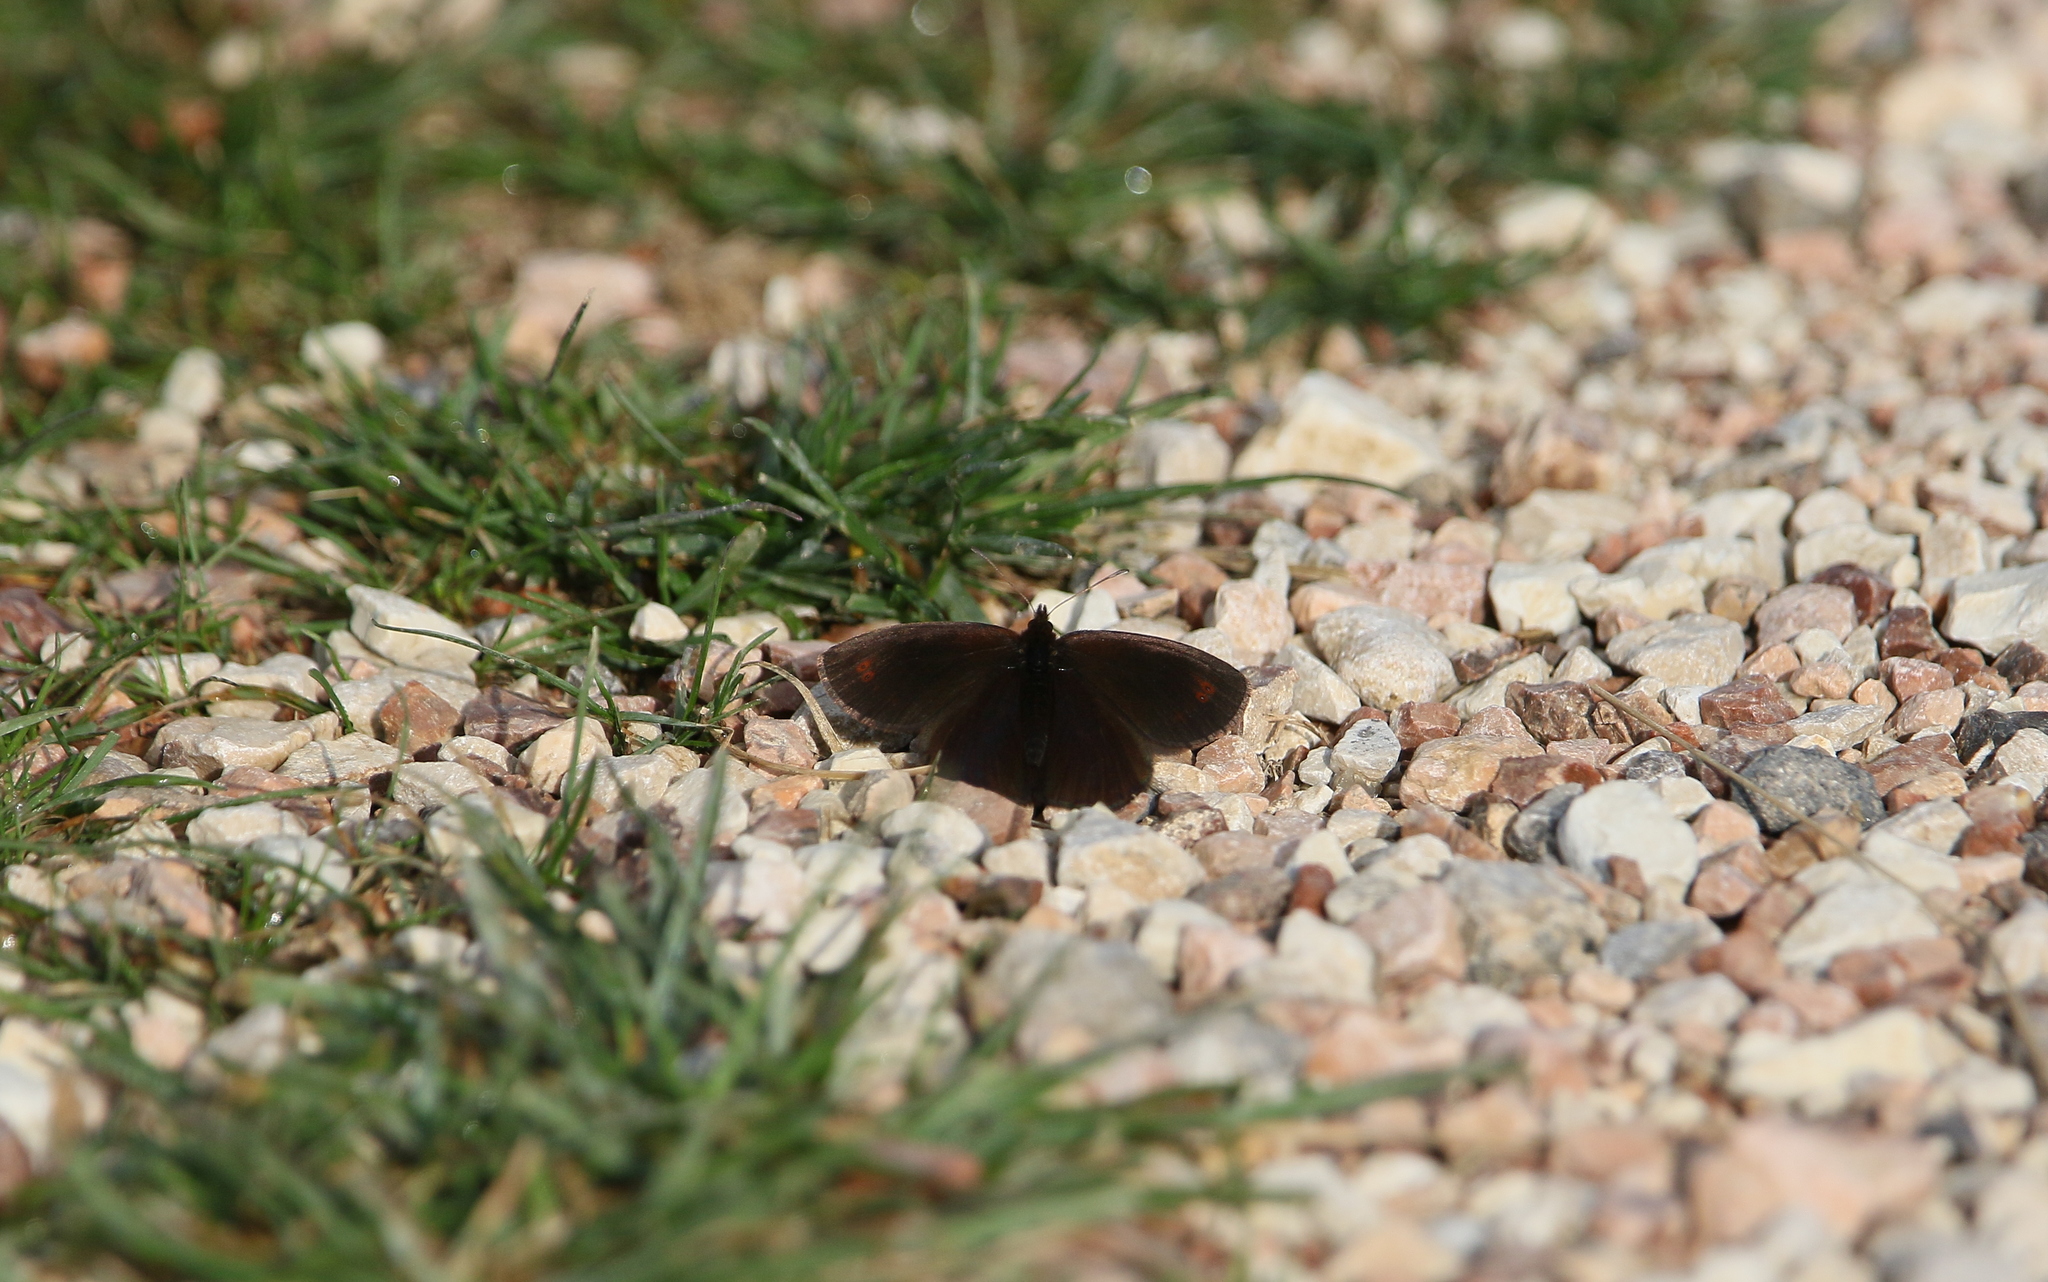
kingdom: Animalia
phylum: Arthropoda
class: Insecta
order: Lepidoptera
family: Nymphalidae
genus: Erebia
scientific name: Erebia pronoe
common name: Water ringlet
